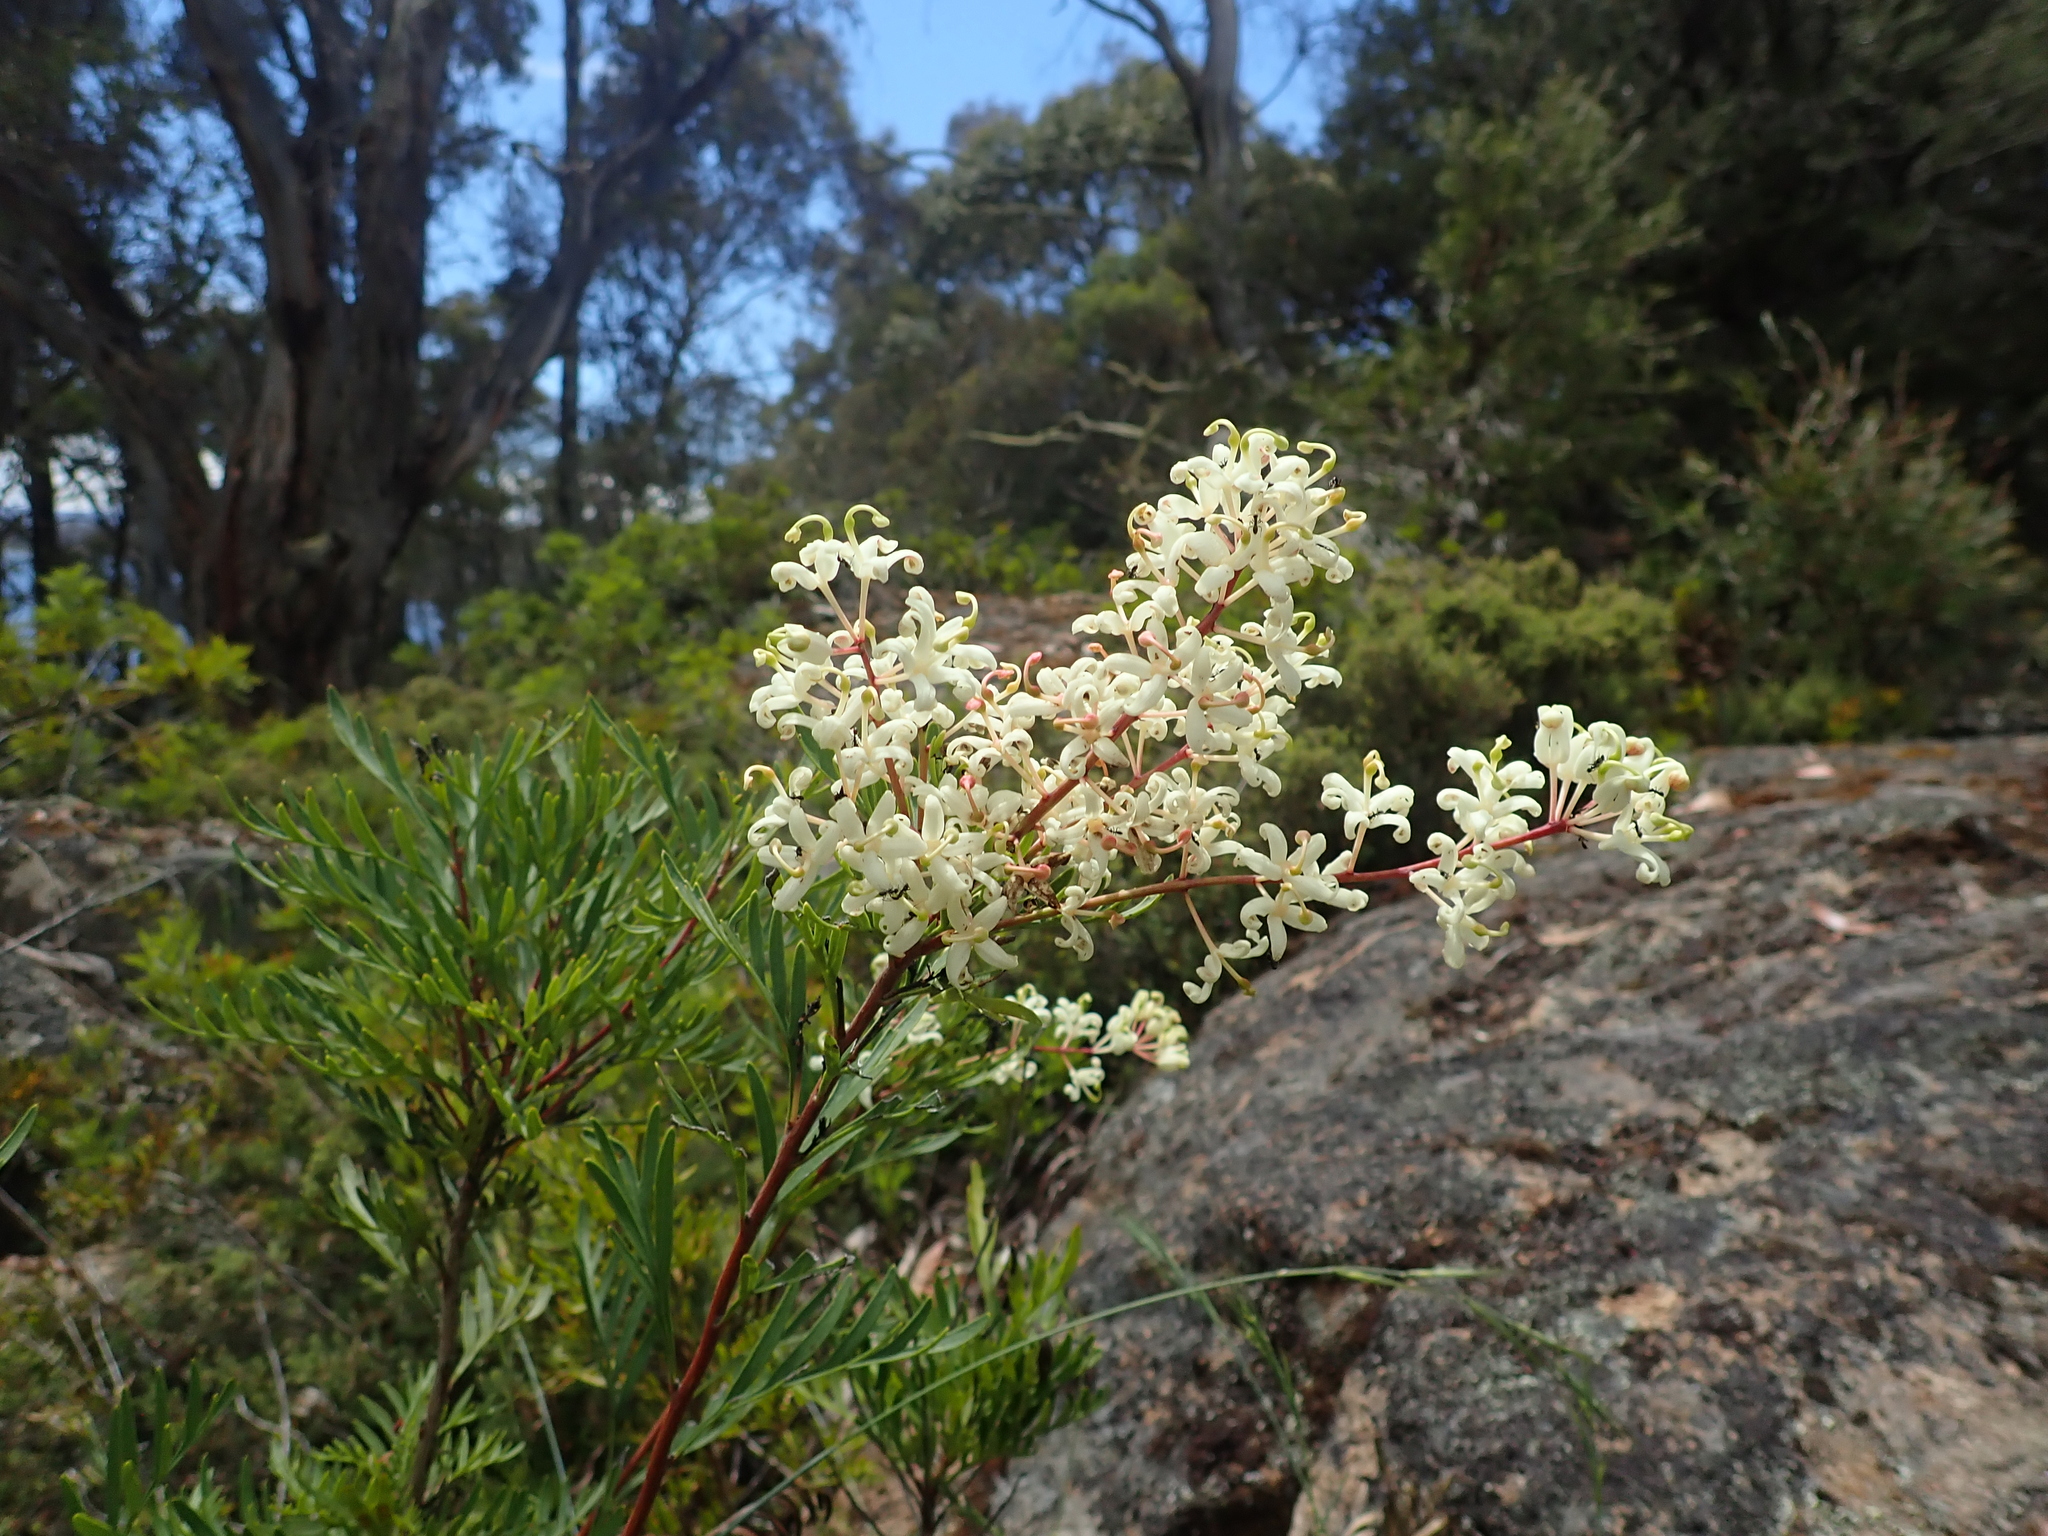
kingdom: Plantae
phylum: Tracheophyta
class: Magnoliopsida
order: Proteales
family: Proteaceae
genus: Lomatia
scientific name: Lomatia tinctoria
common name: Guitar plant
